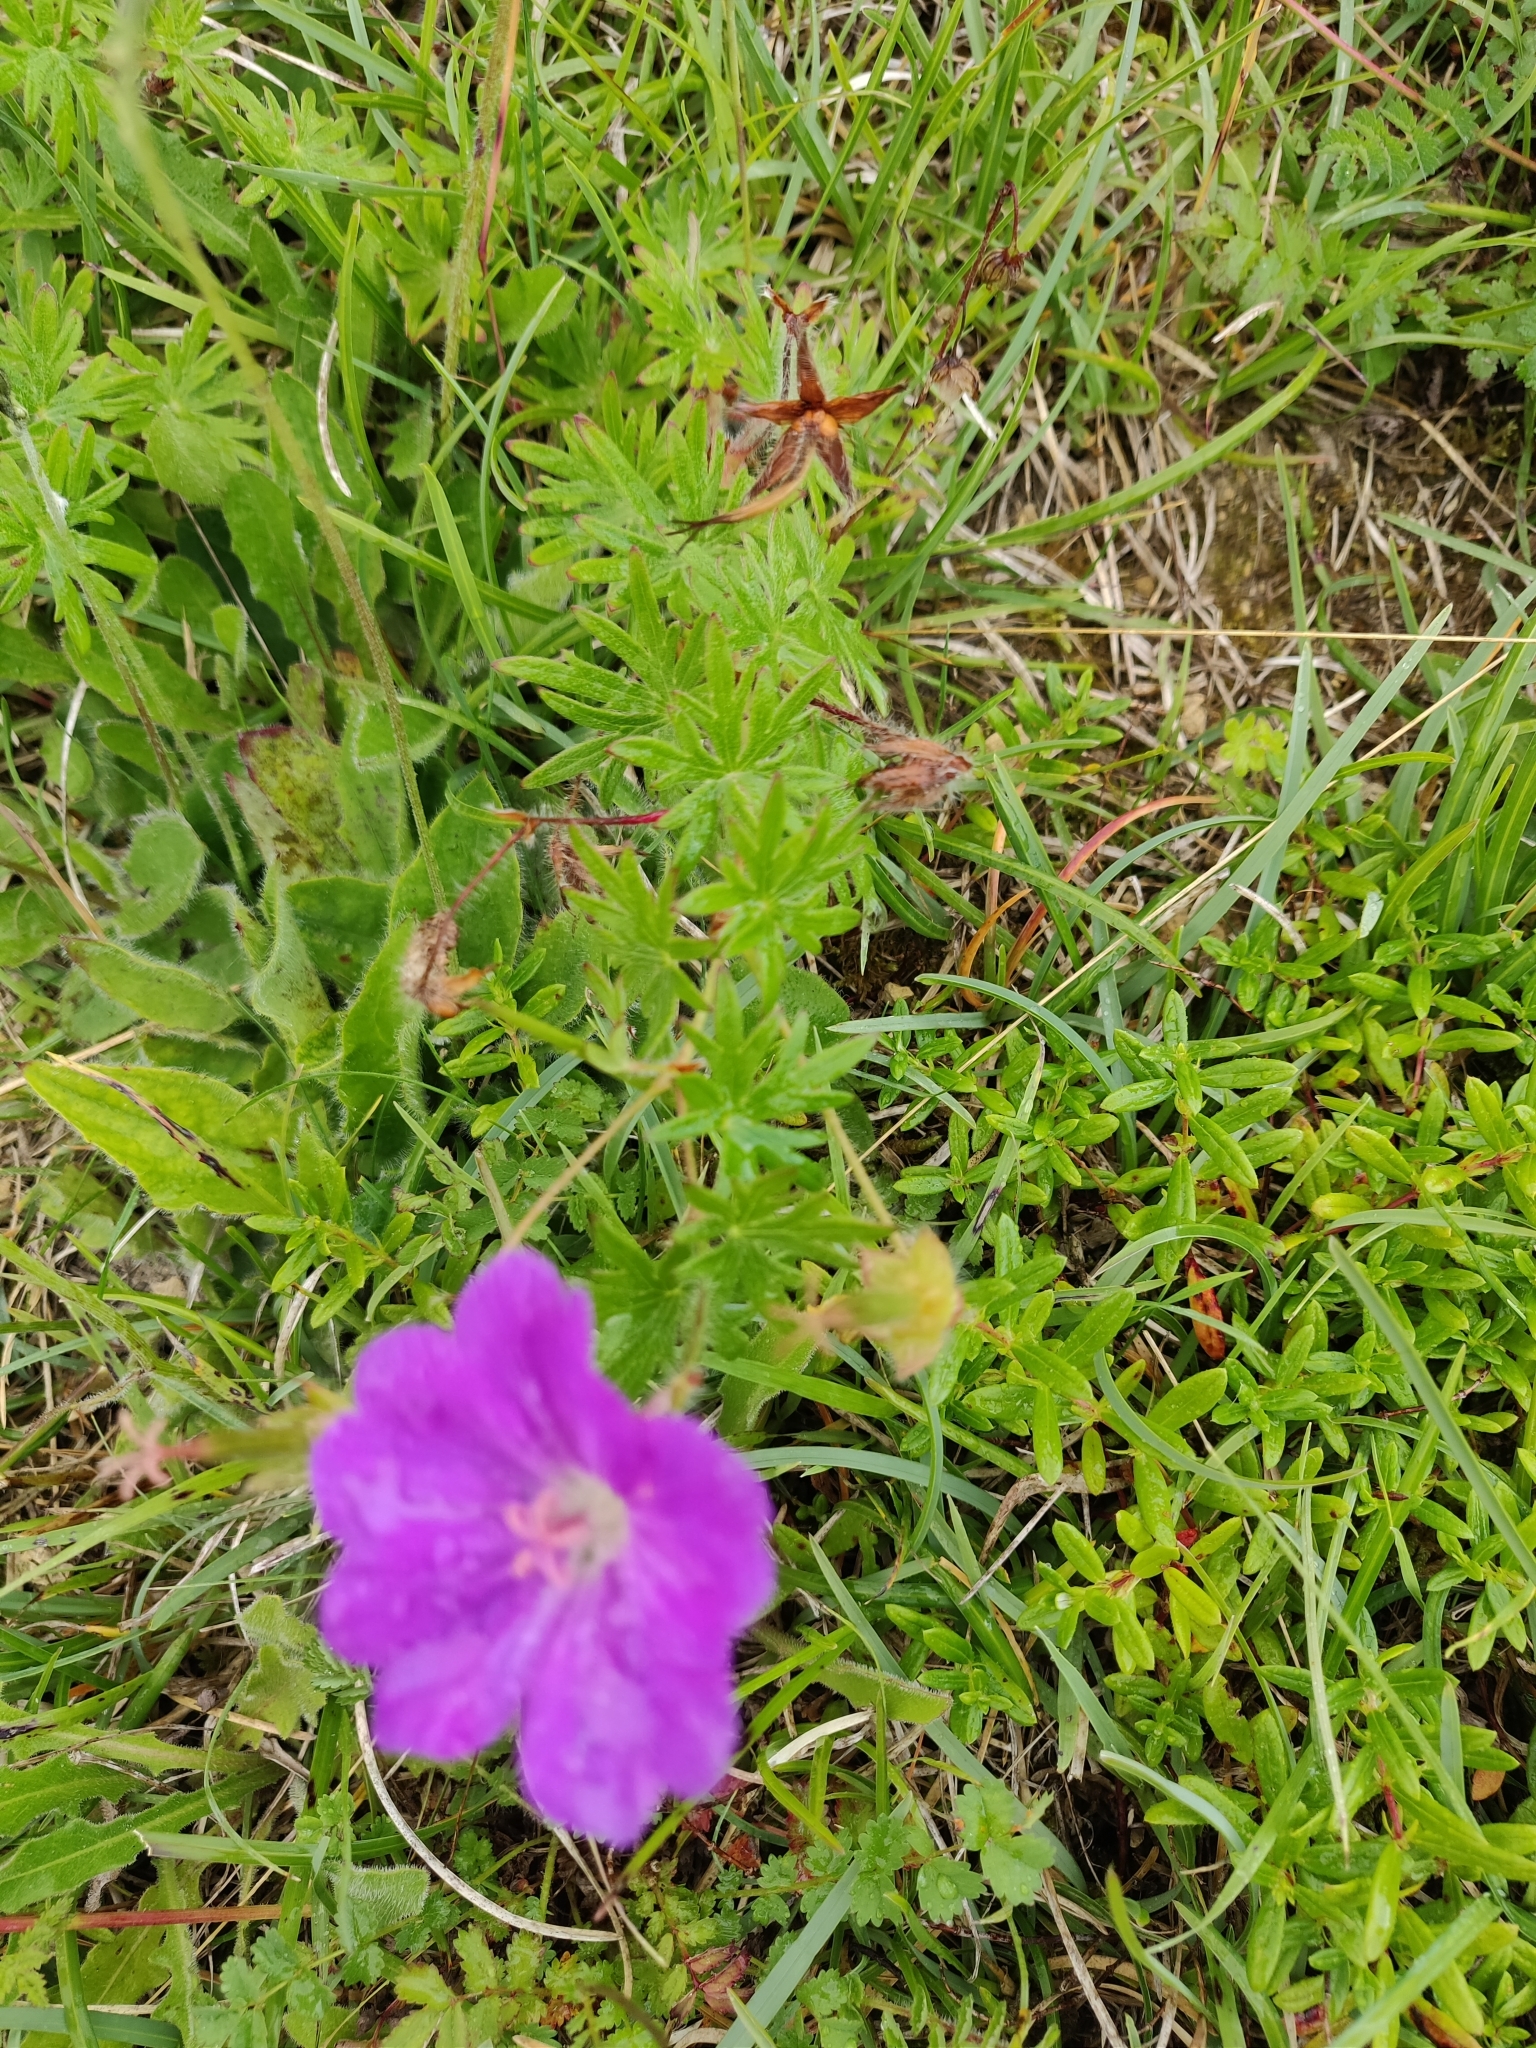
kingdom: Plantae
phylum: Tracheophyta
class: Magnoliopsida
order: Geraniales
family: Geraniaceae
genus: Geranium
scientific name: Geranium sanguineum
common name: Bloody crane's-bill
